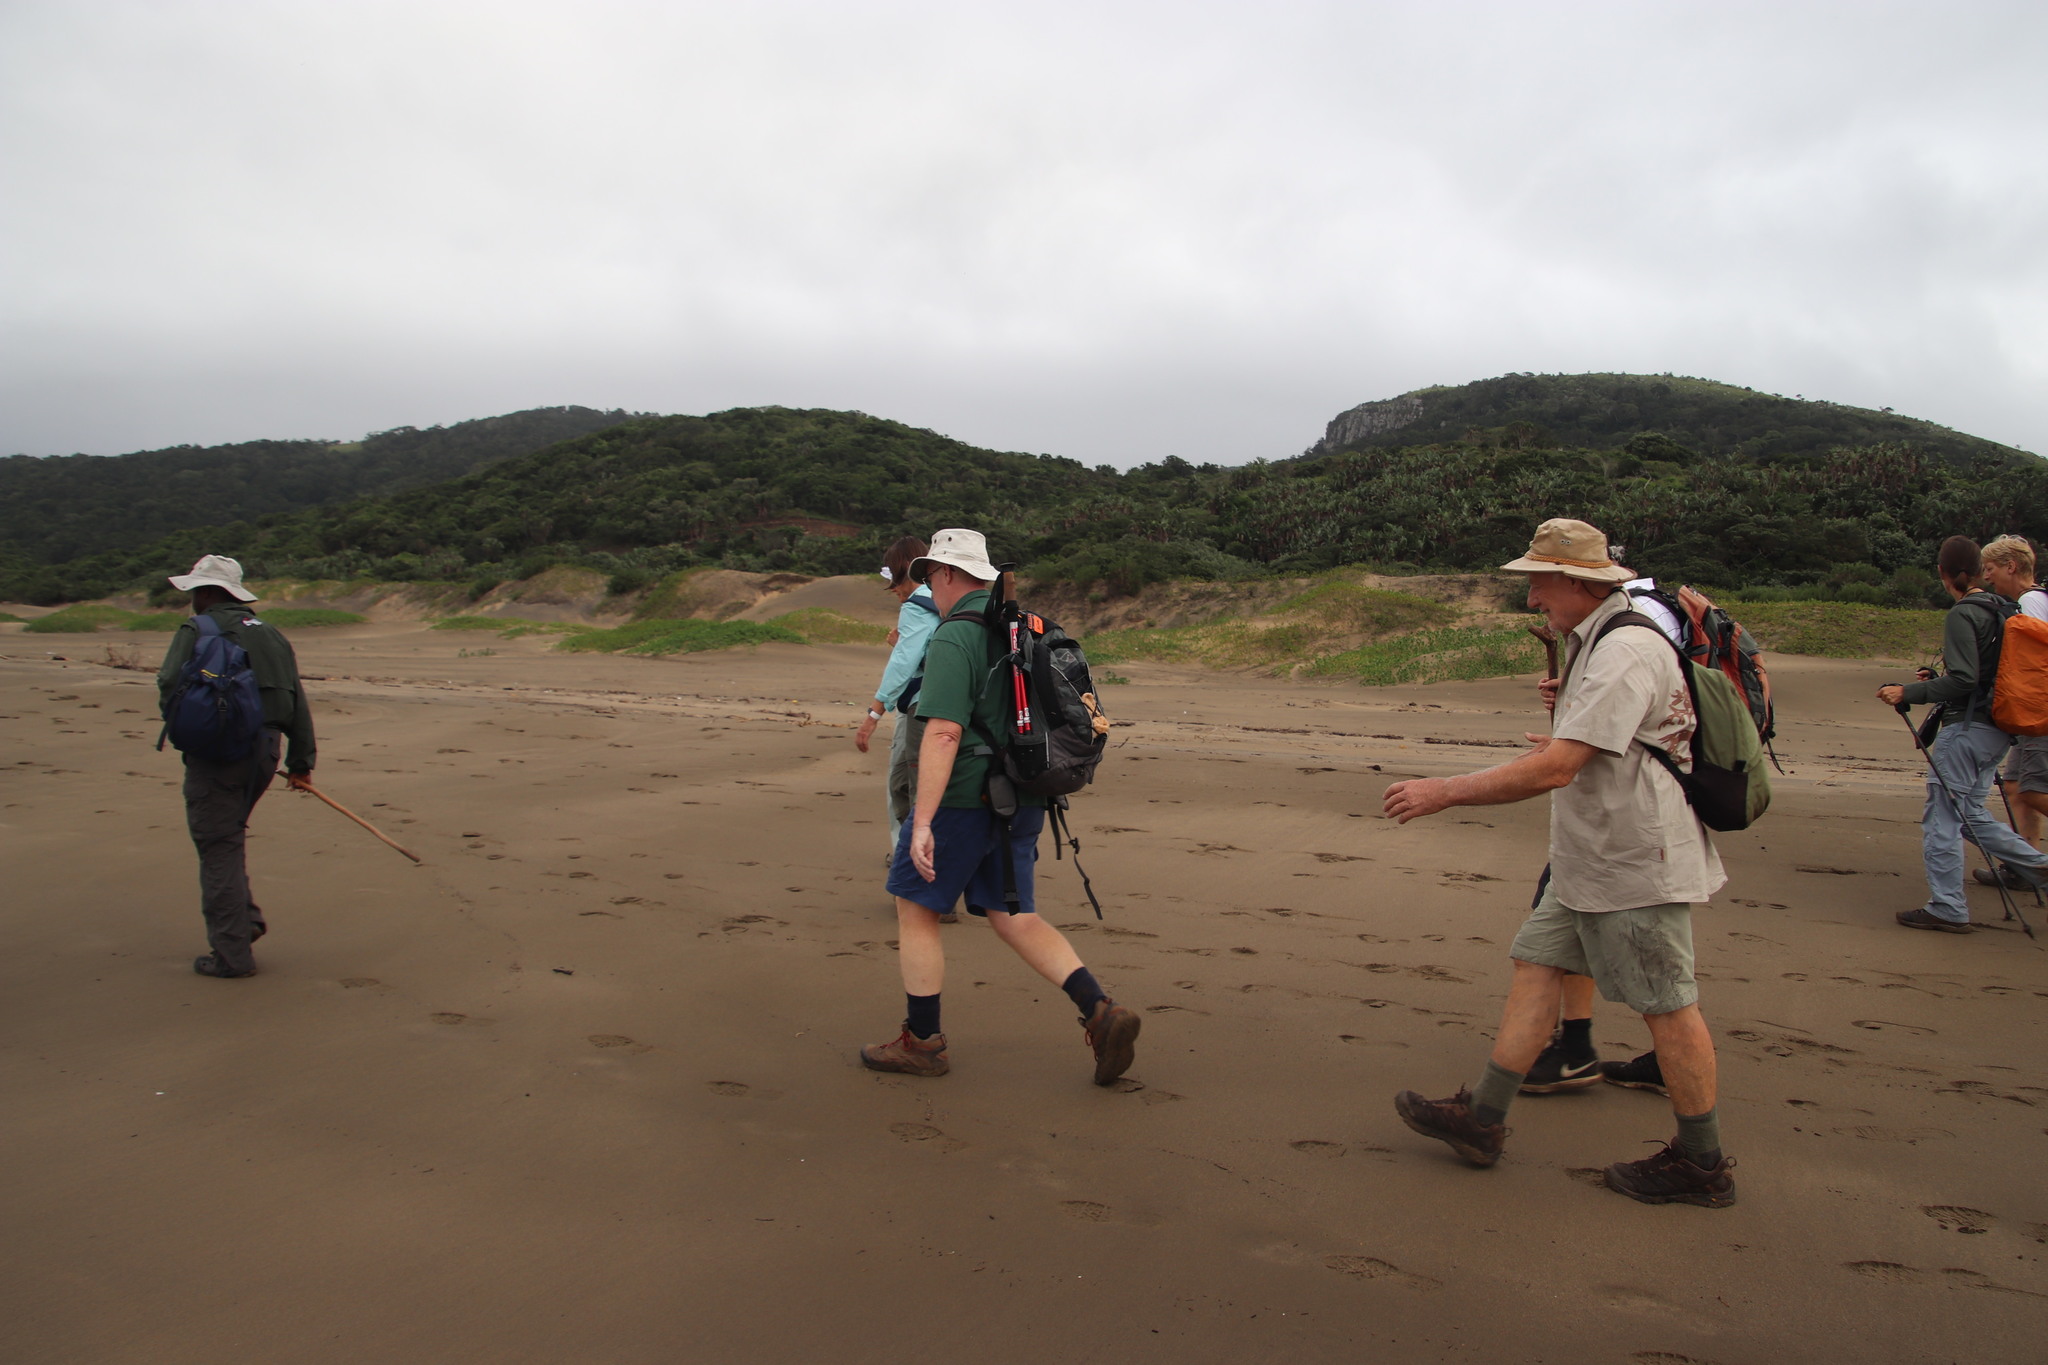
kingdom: Plantae
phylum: Tracheophyta
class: Magnoliopsida
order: Solanales
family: Convolvulaceae
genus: Ipomoea
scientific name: Ipomoea pes-caprae
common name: Beach morning glory
